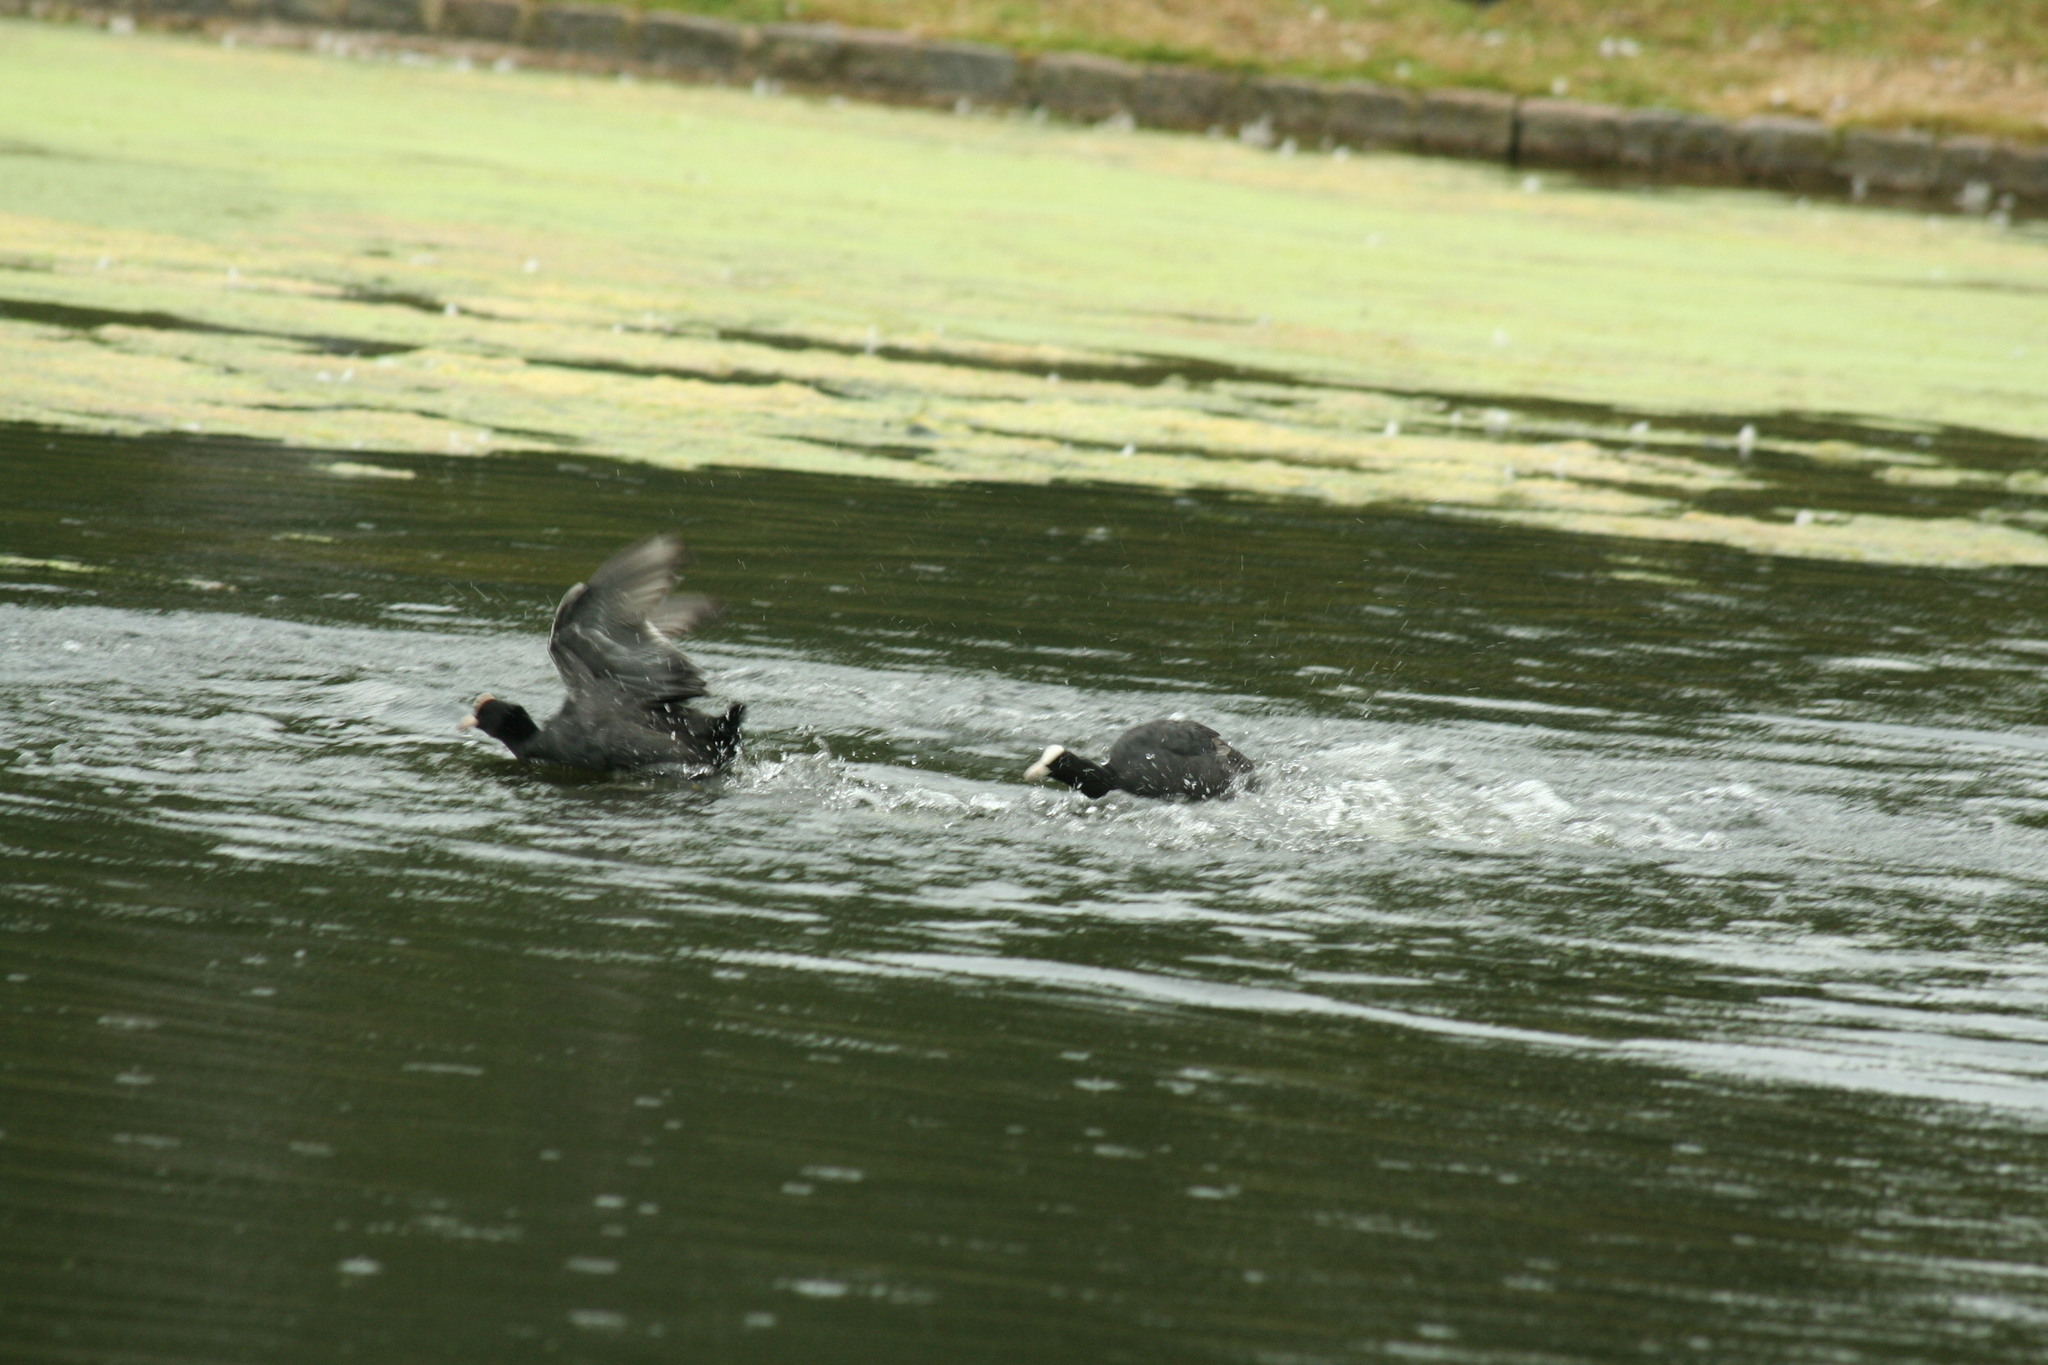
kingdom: Animalia
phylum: Chordata
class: Aves
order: Gruiformes
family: Rallidae
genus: Fulica
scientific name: Fulica atra
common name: Eurasian coot
